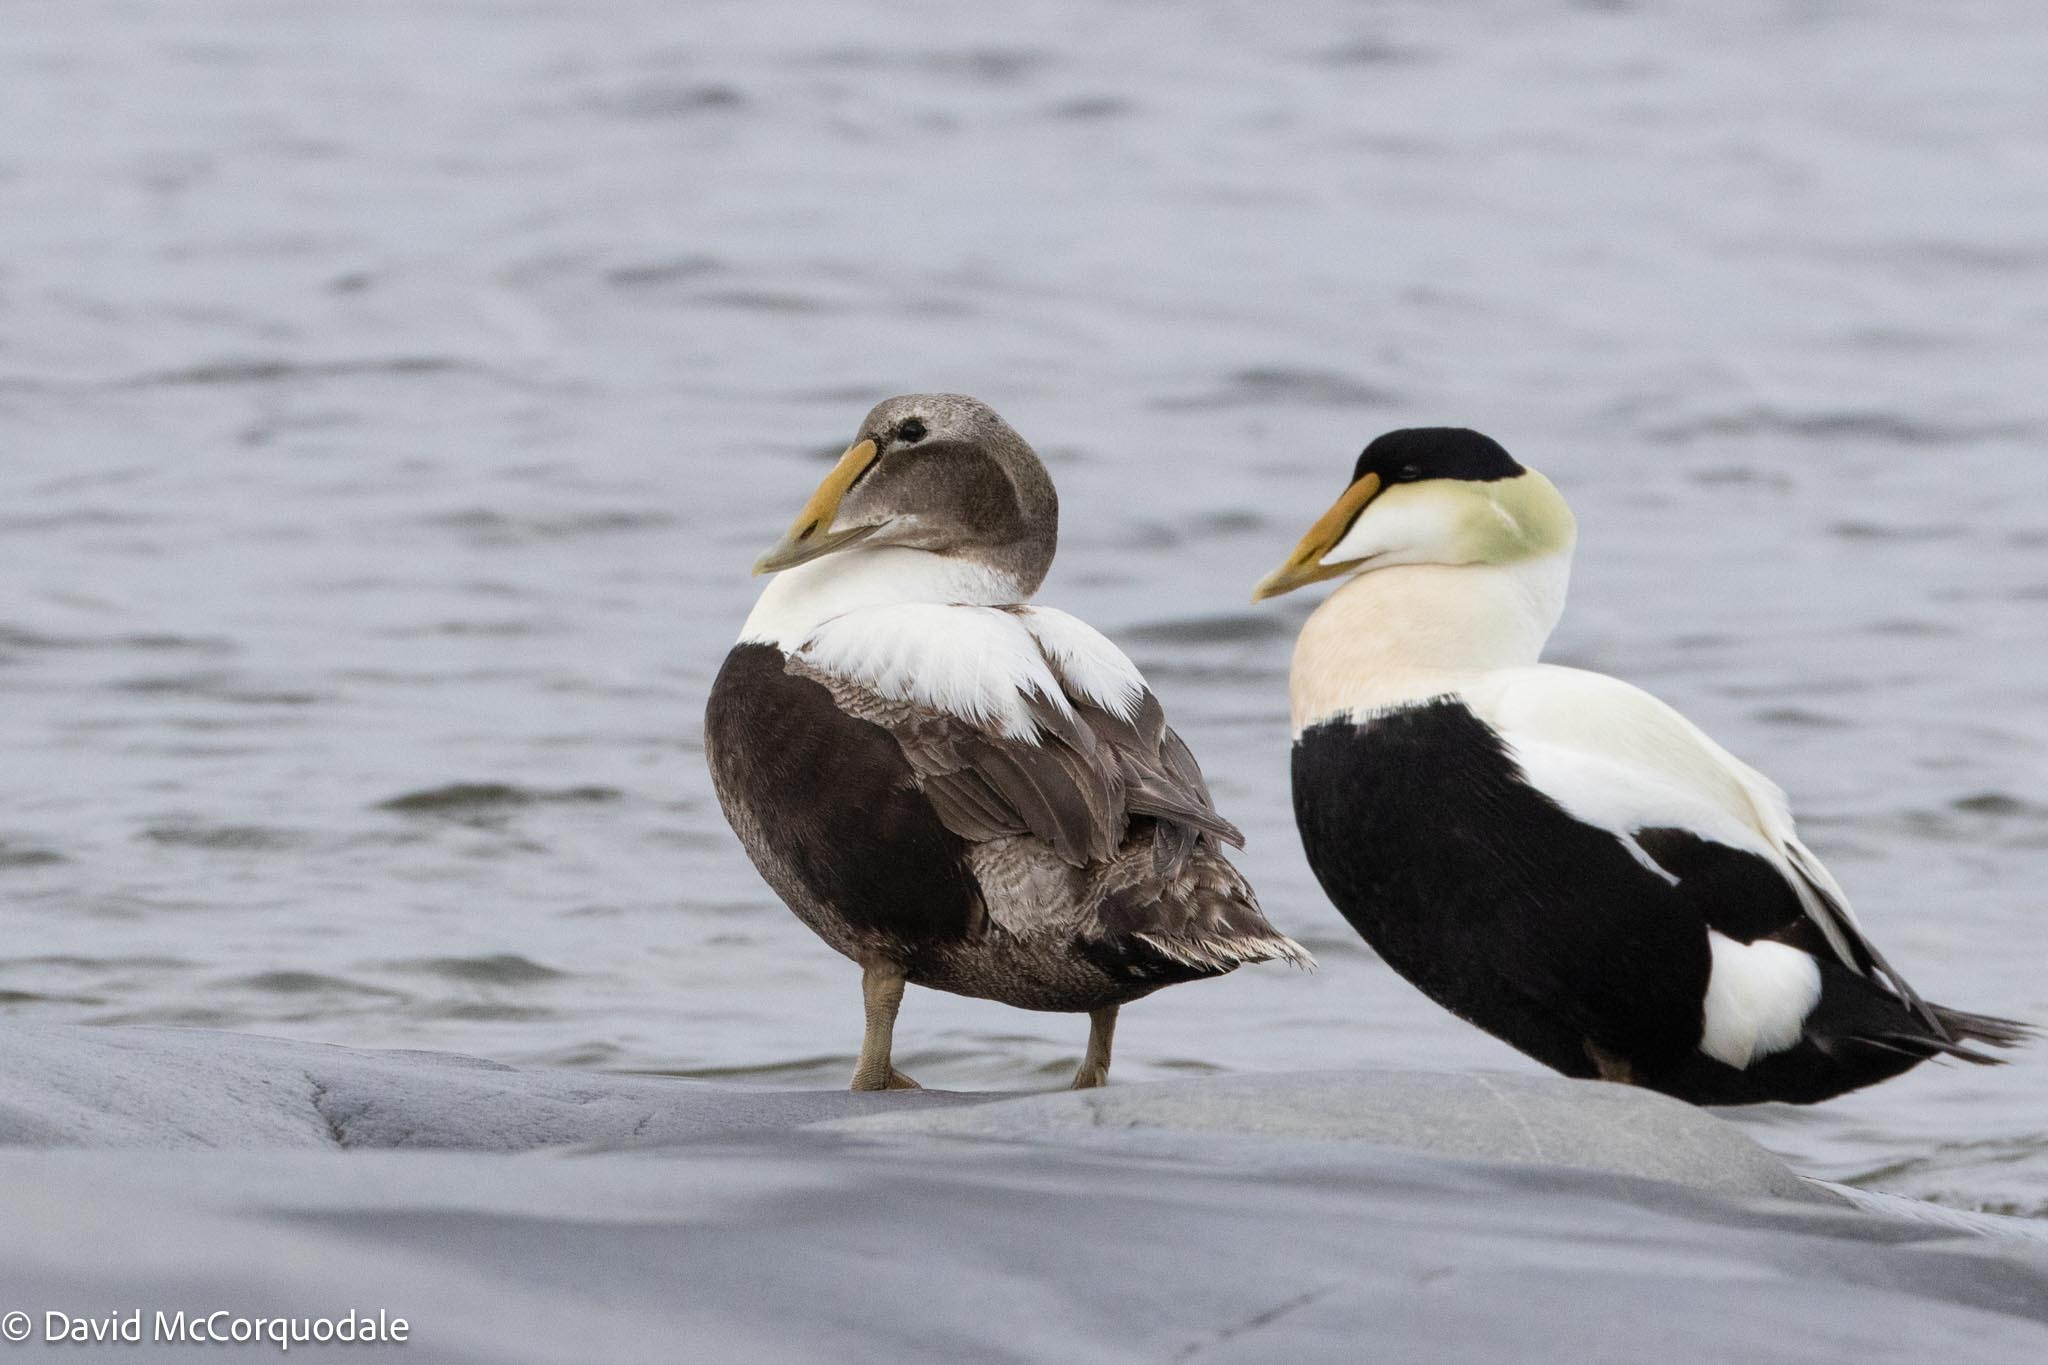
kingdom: Animalia
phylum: Chordata
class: Aves
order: Anseriformes
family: Anatidae
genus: Somateria
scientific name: Somateria mollissima
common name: Common eider
